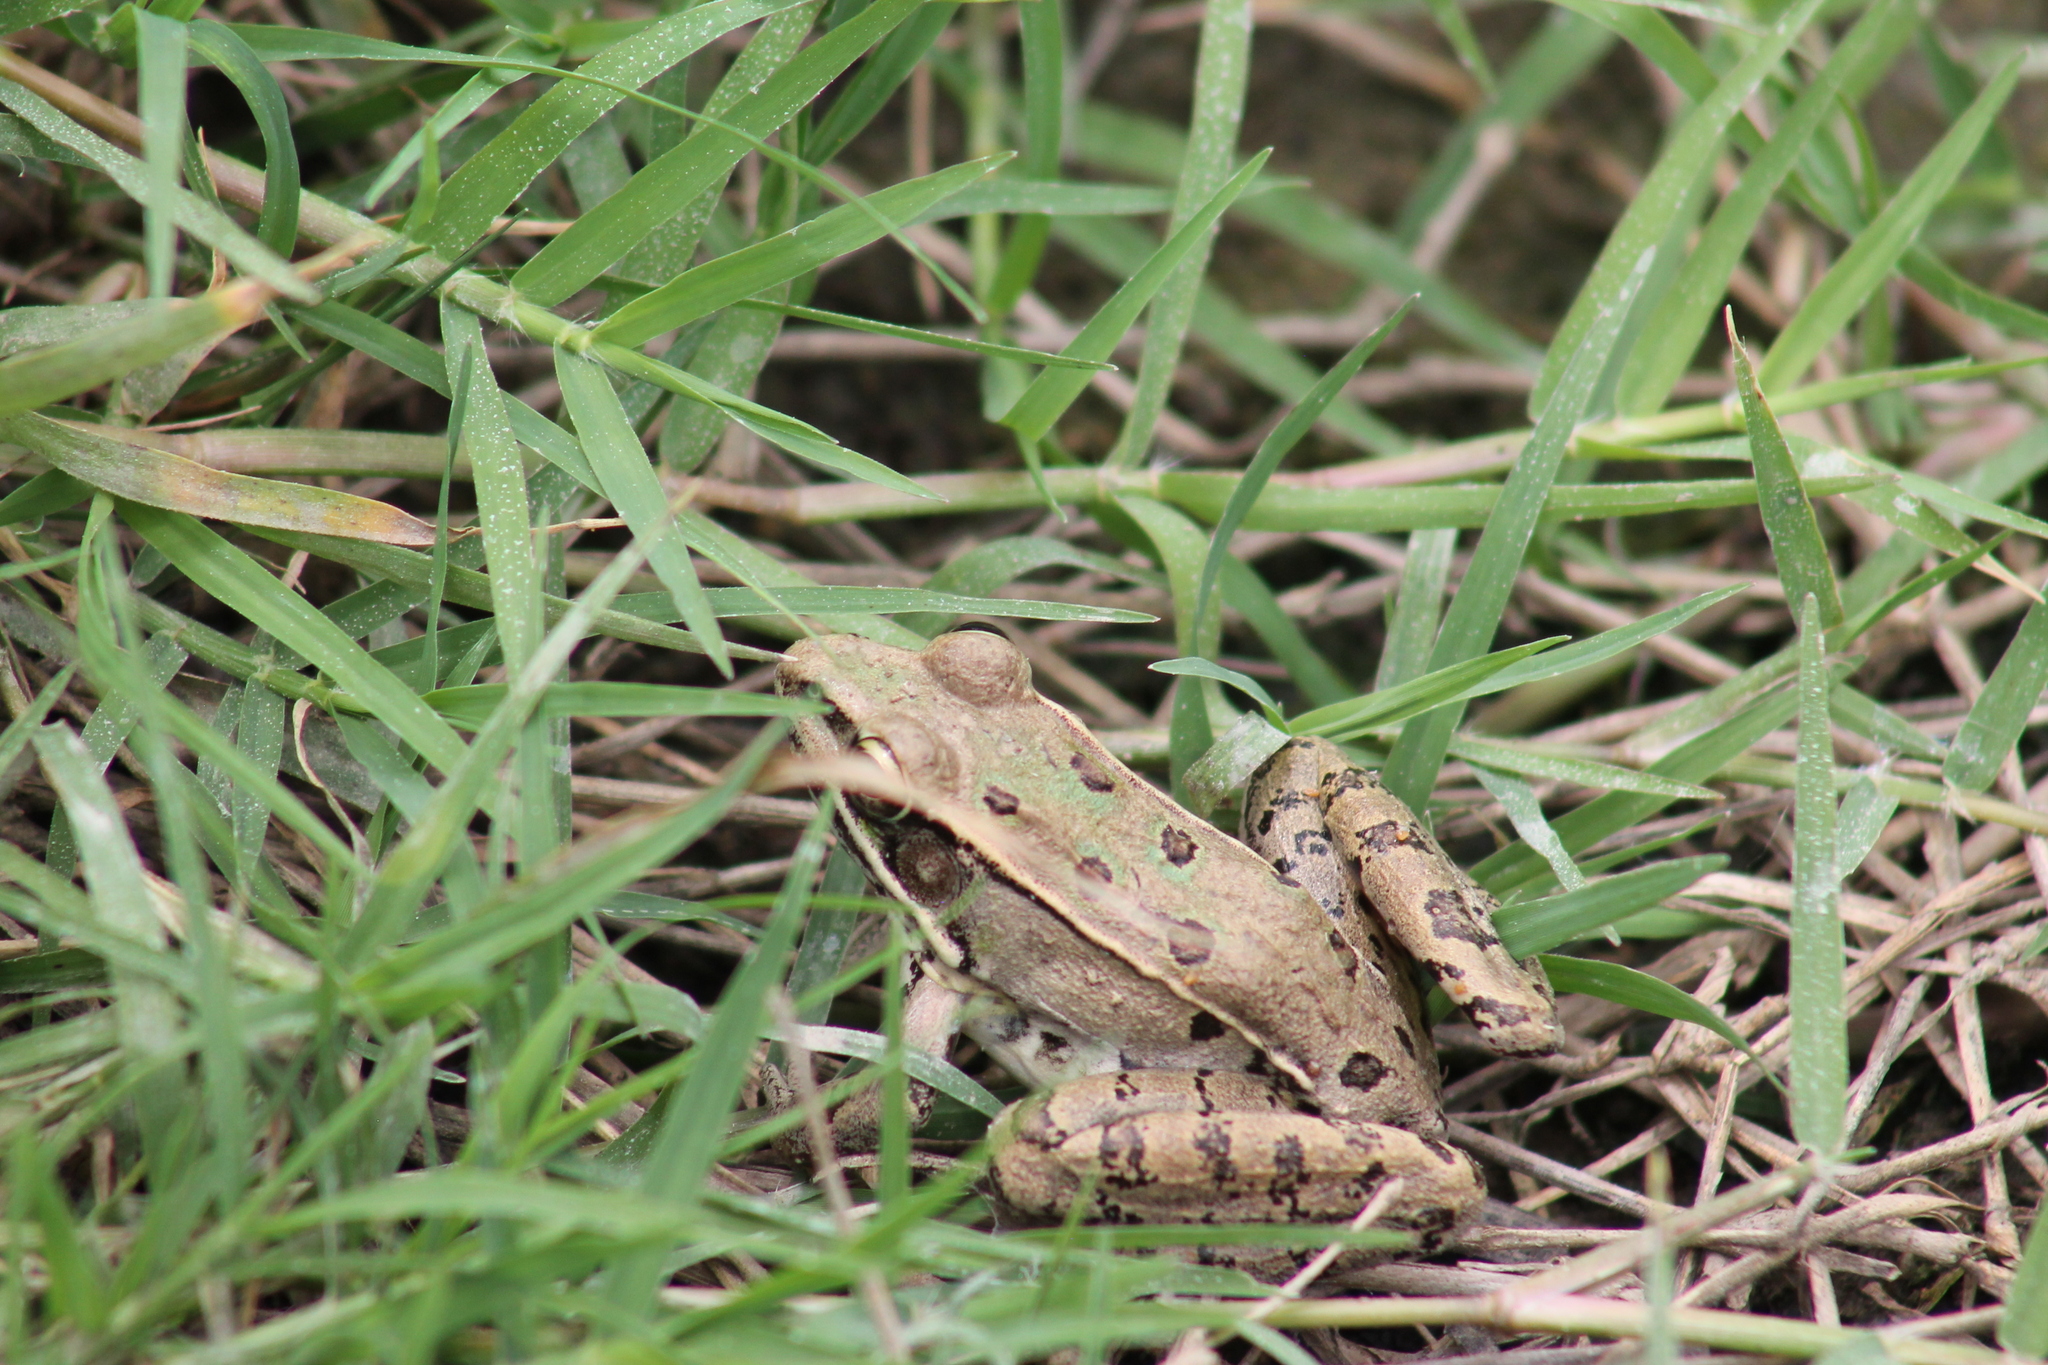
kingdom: Animalia
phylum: Chordata
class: Amphibia
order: Anura
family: Ranidae
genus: Lithobates
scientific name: Lithobates sphenocephalus
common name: Southern leopard frog
